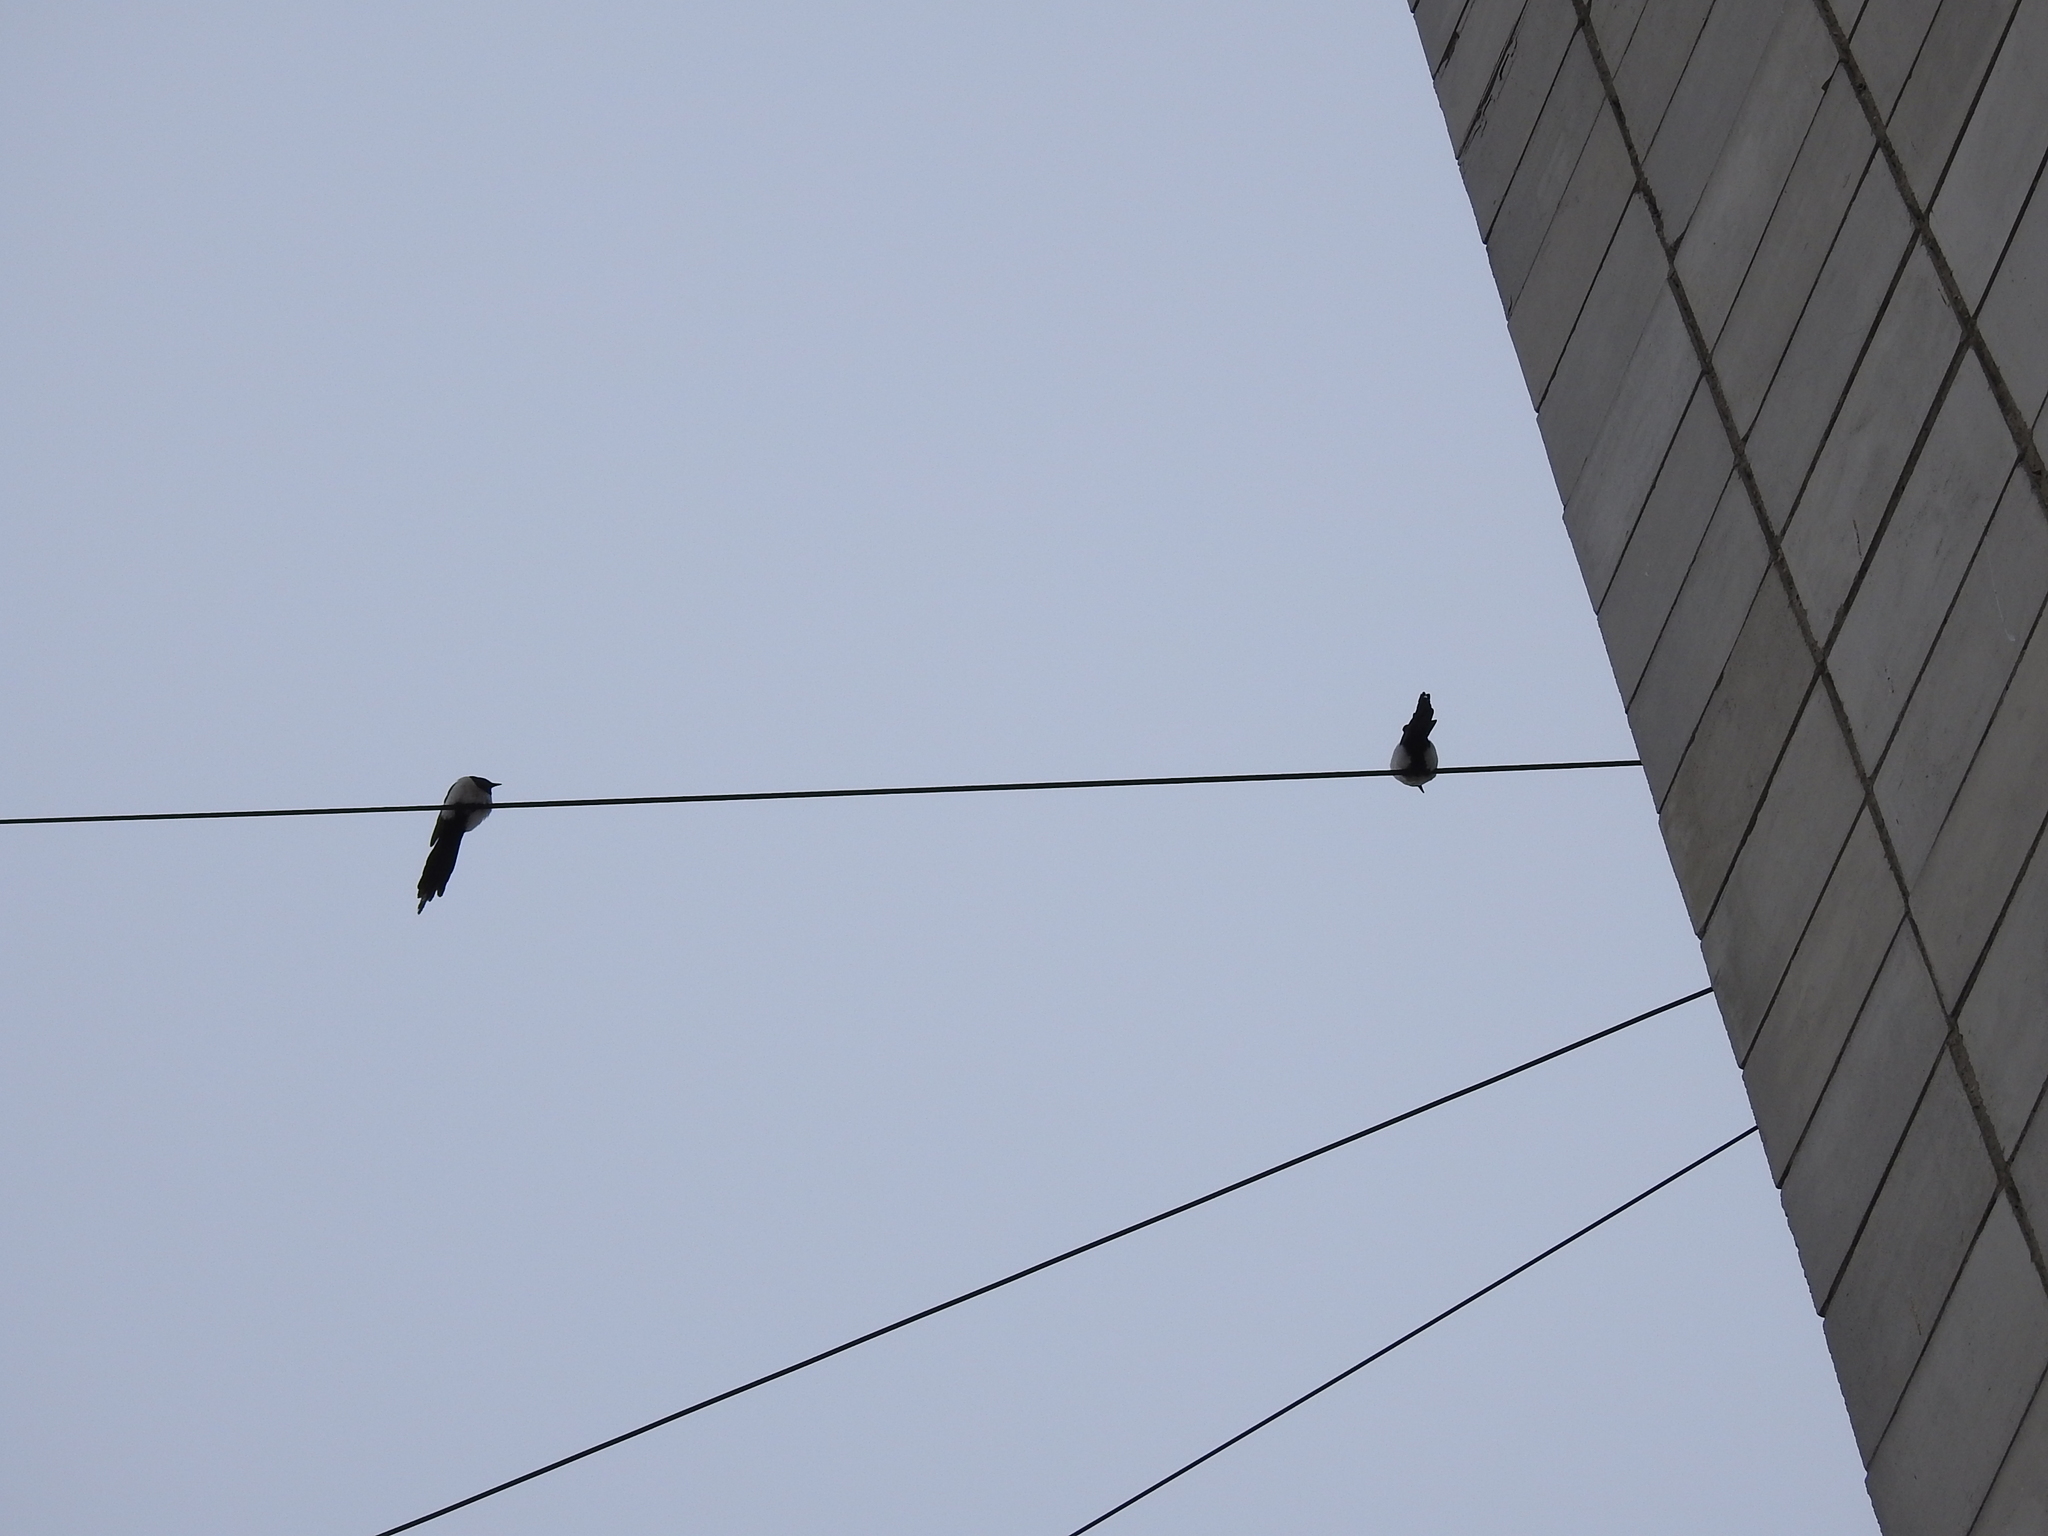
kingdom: Animalia
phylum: Chordata
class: Aves
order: Passeriformes
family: Corvidae
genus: Pica
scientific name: Pica pica
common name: Eurasian magpie
